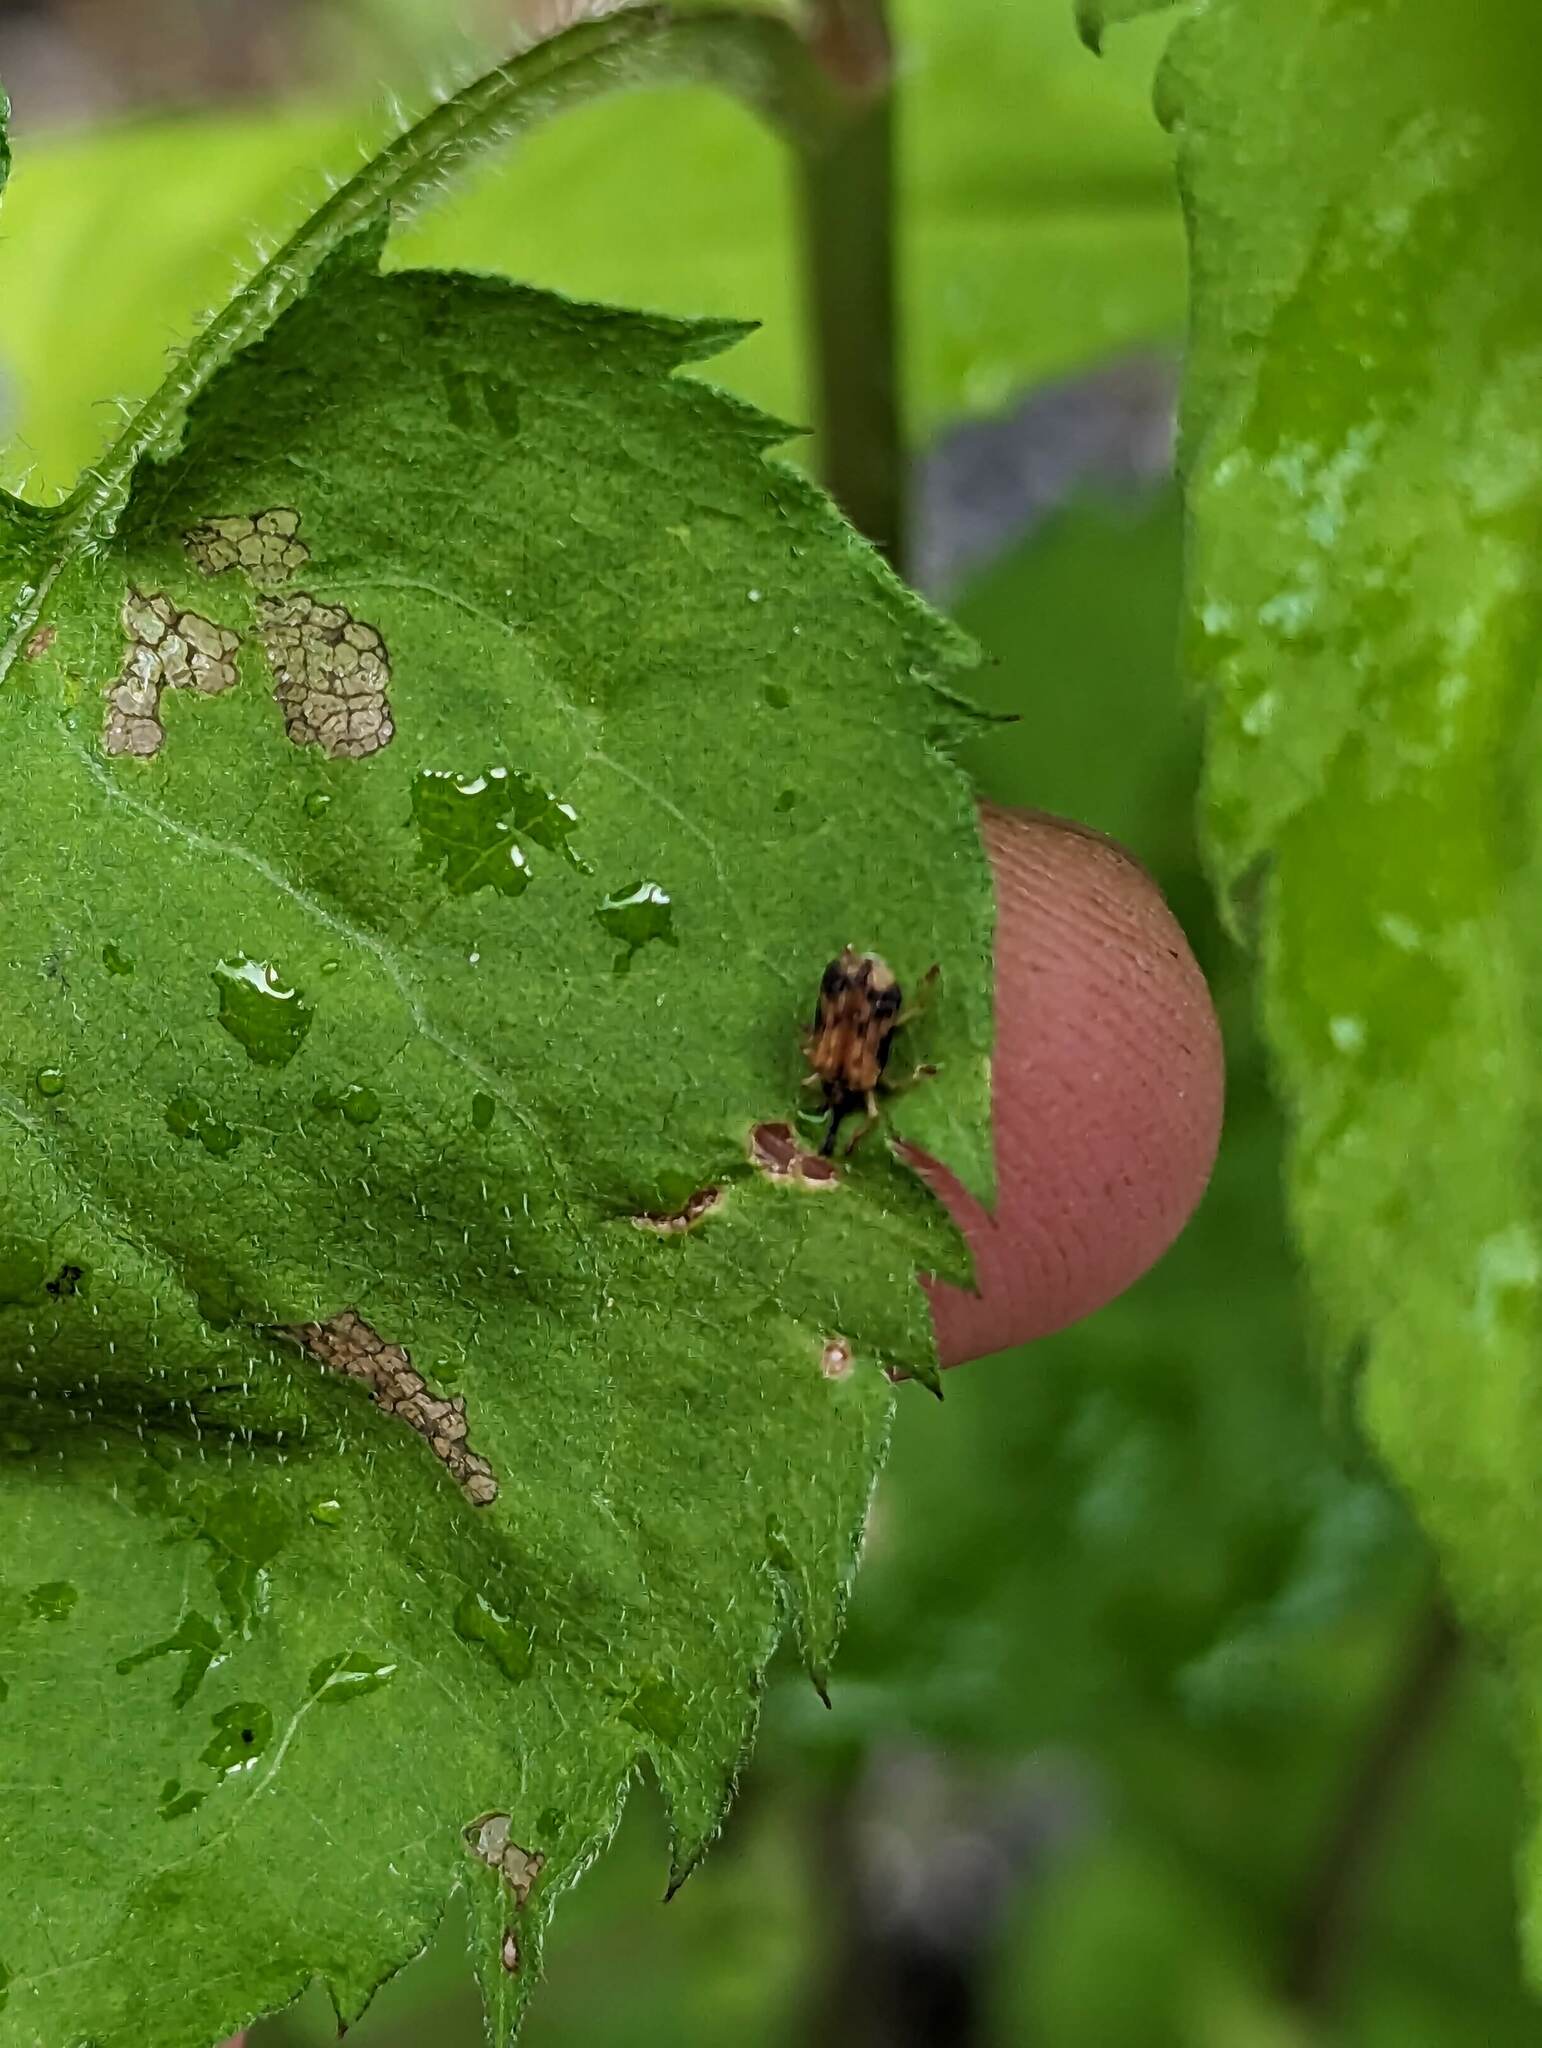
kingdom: Animalia
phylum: Arthropoda
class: Insecta
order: Coleoptera
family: Chrysomelidae
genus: Sumitrosis
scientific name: Sumitrosis inaequalis
